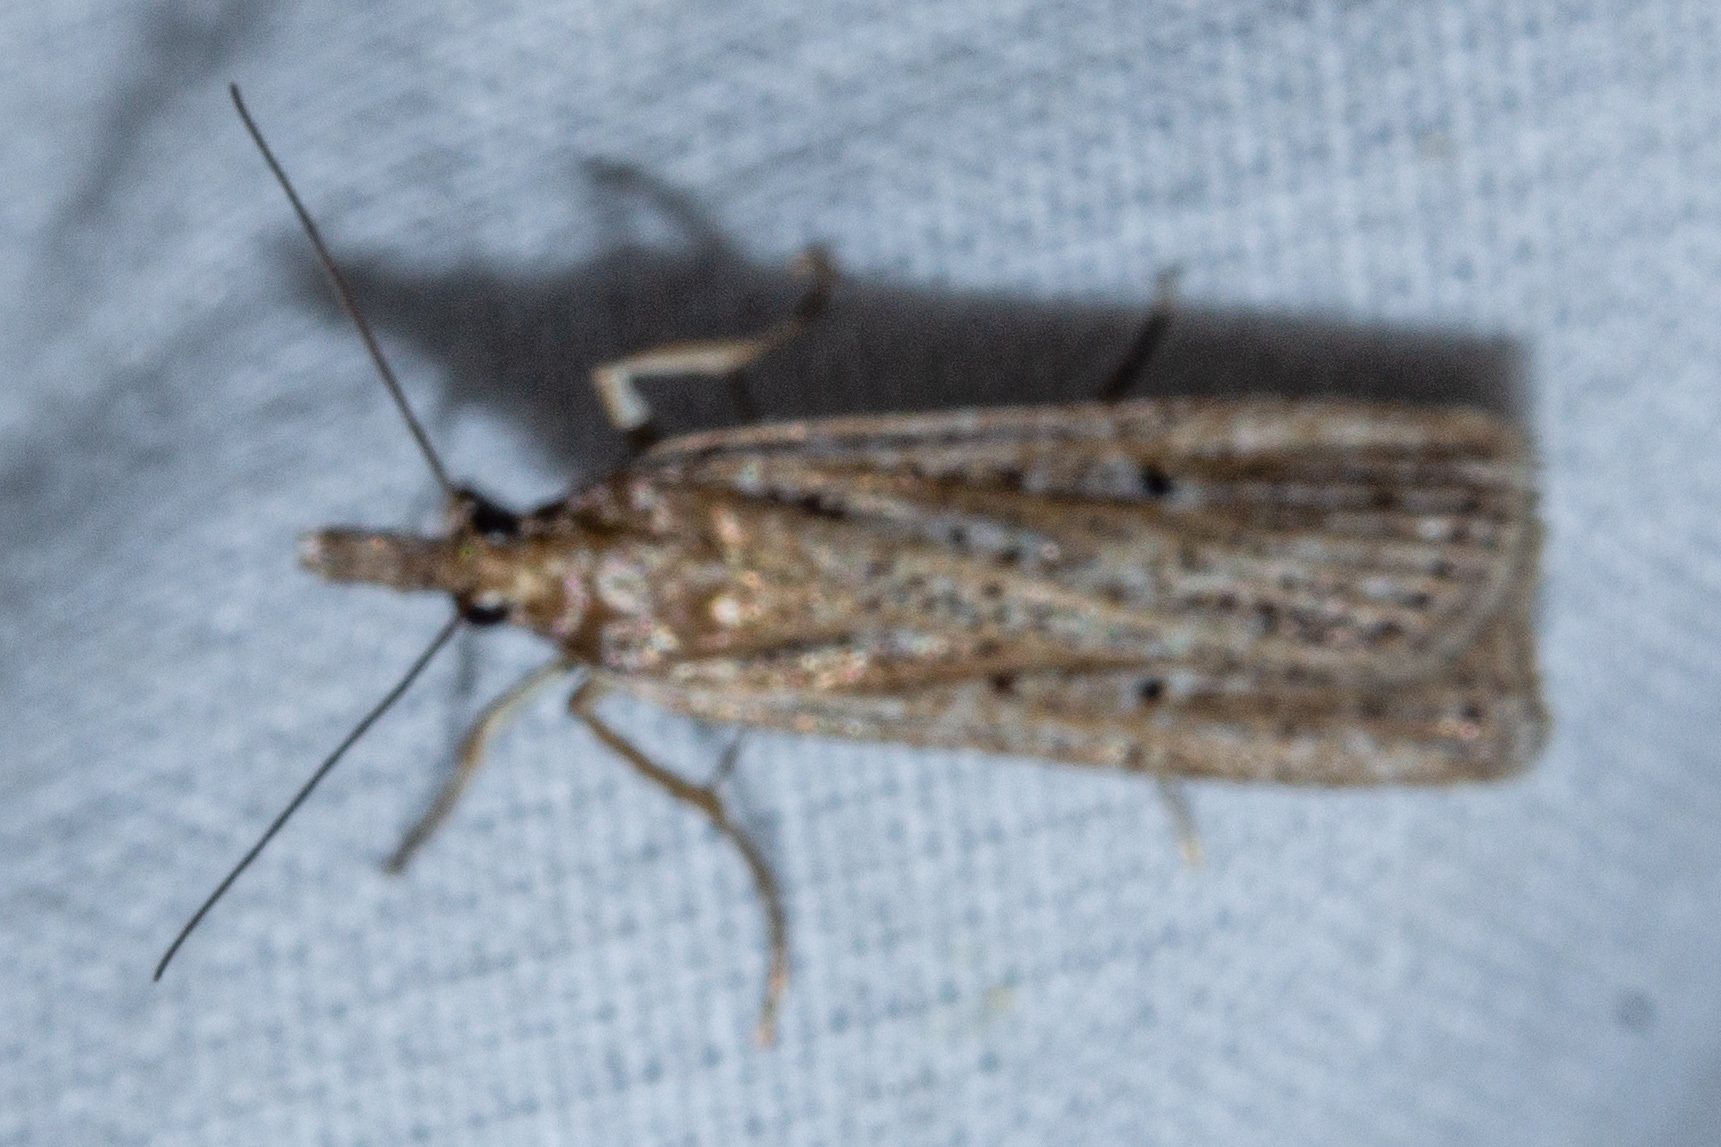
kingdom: Animalia
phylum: Arthropoda
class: Insecta
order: Lepidoptera
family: Crambidae
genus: Eudonia
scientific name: Eudonia sabulosella
